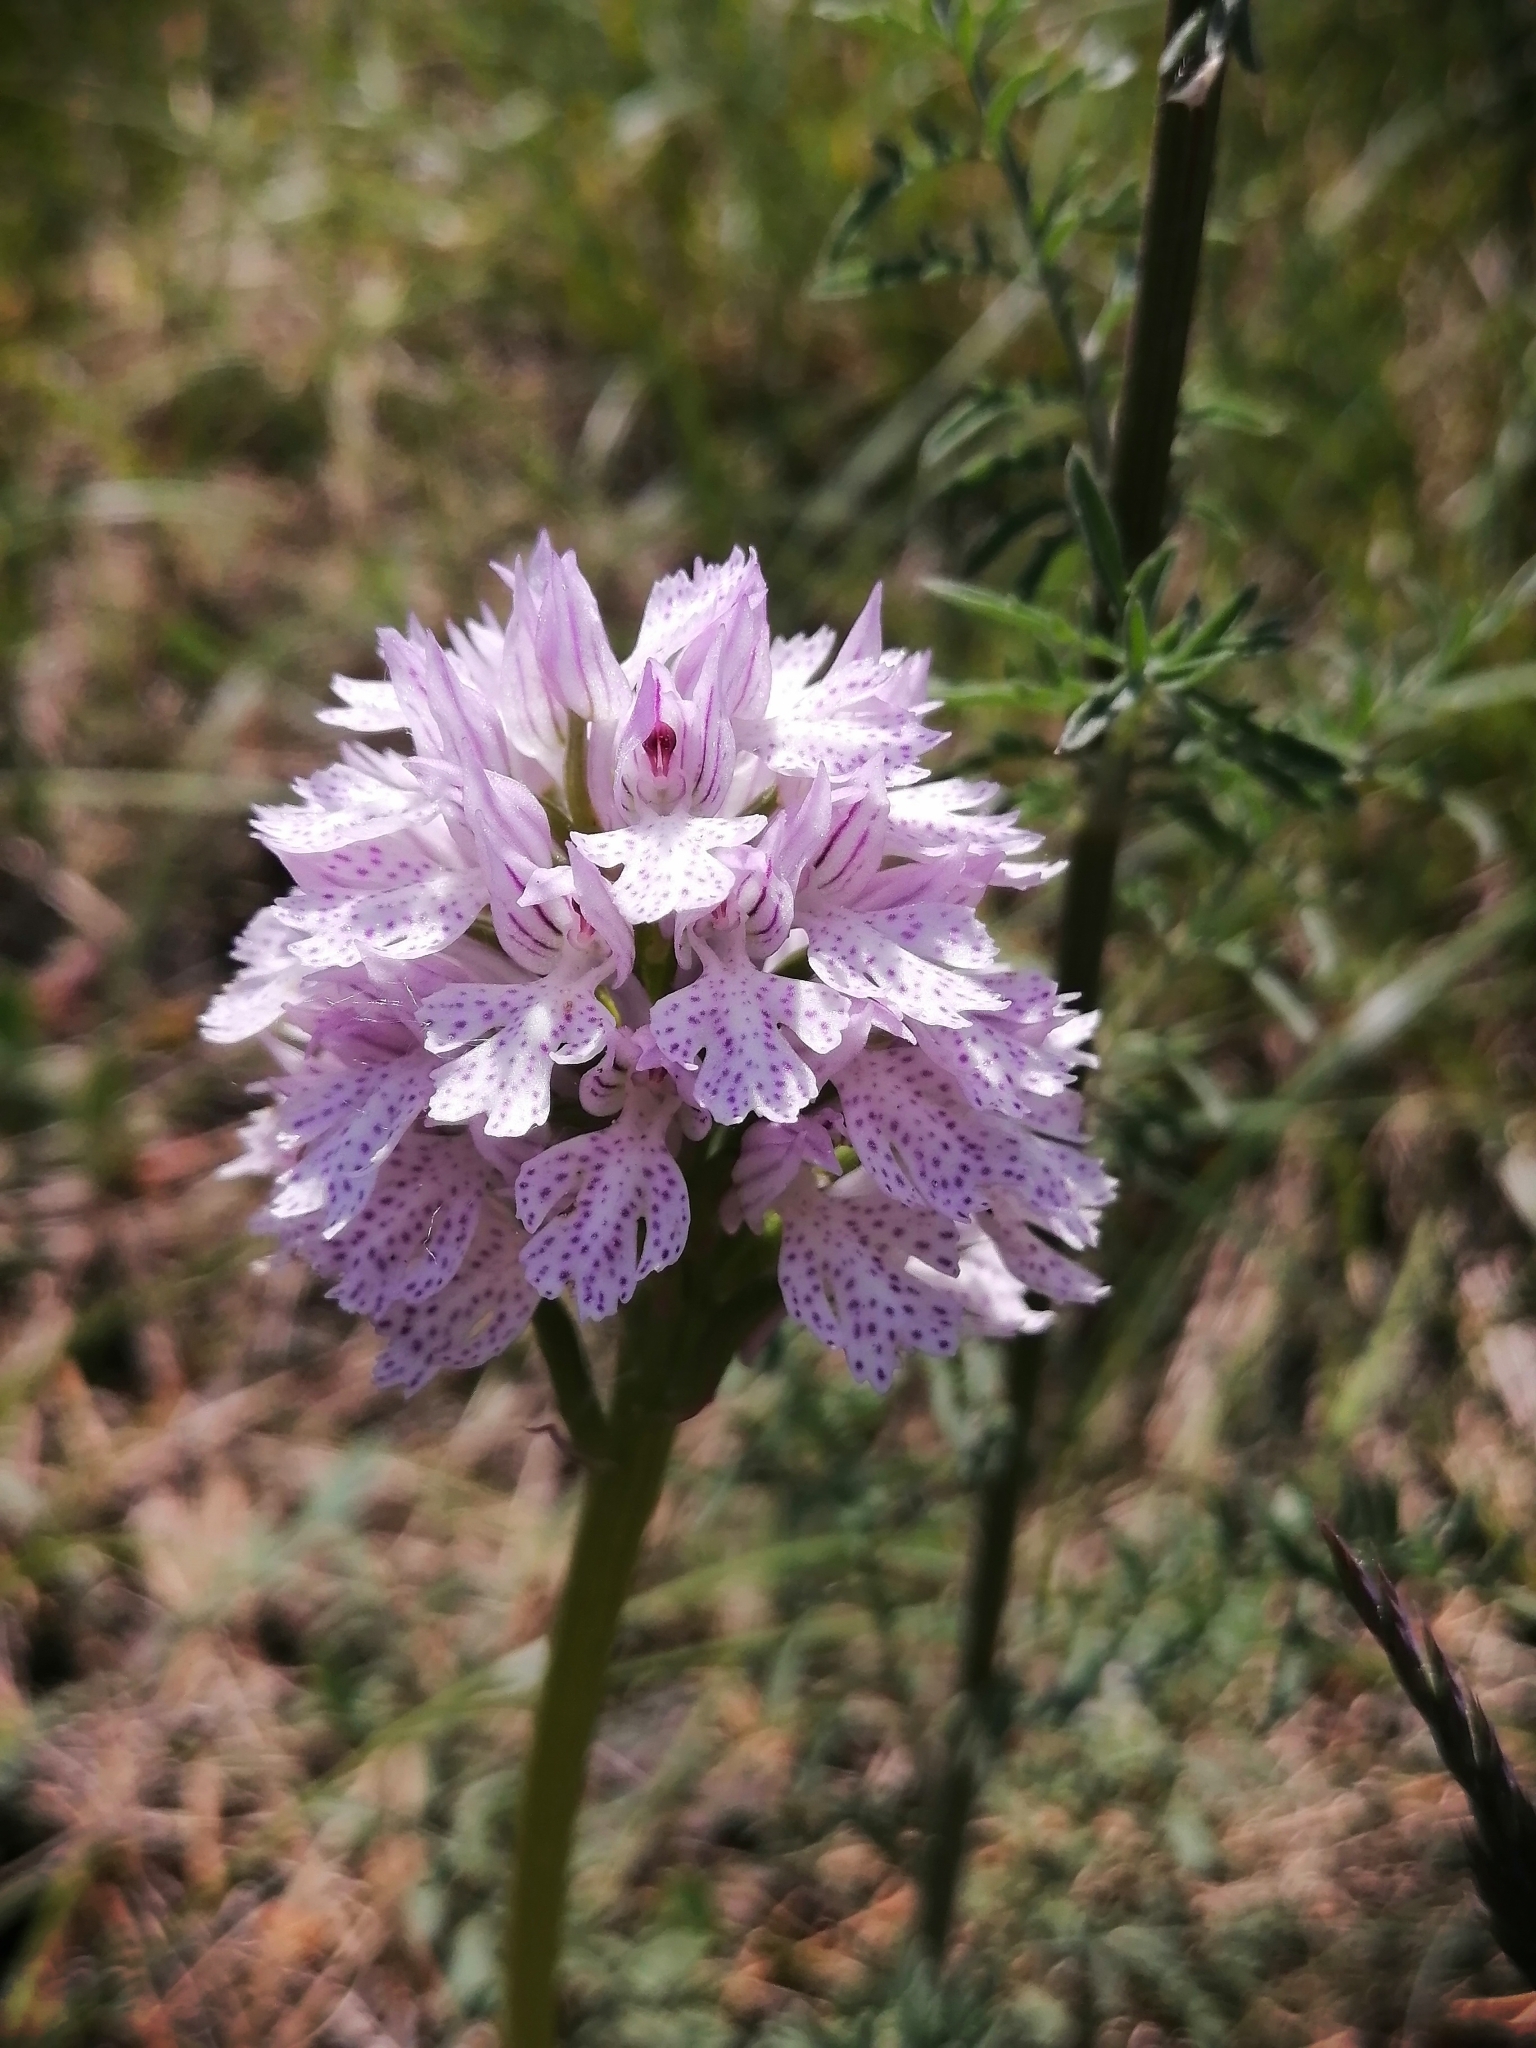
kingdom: Plantae
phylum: Tracheophyta
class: Liliopsida
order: Asparagales
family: Orchidaceae
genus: Neotinea
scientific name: Neotinea tridentata
